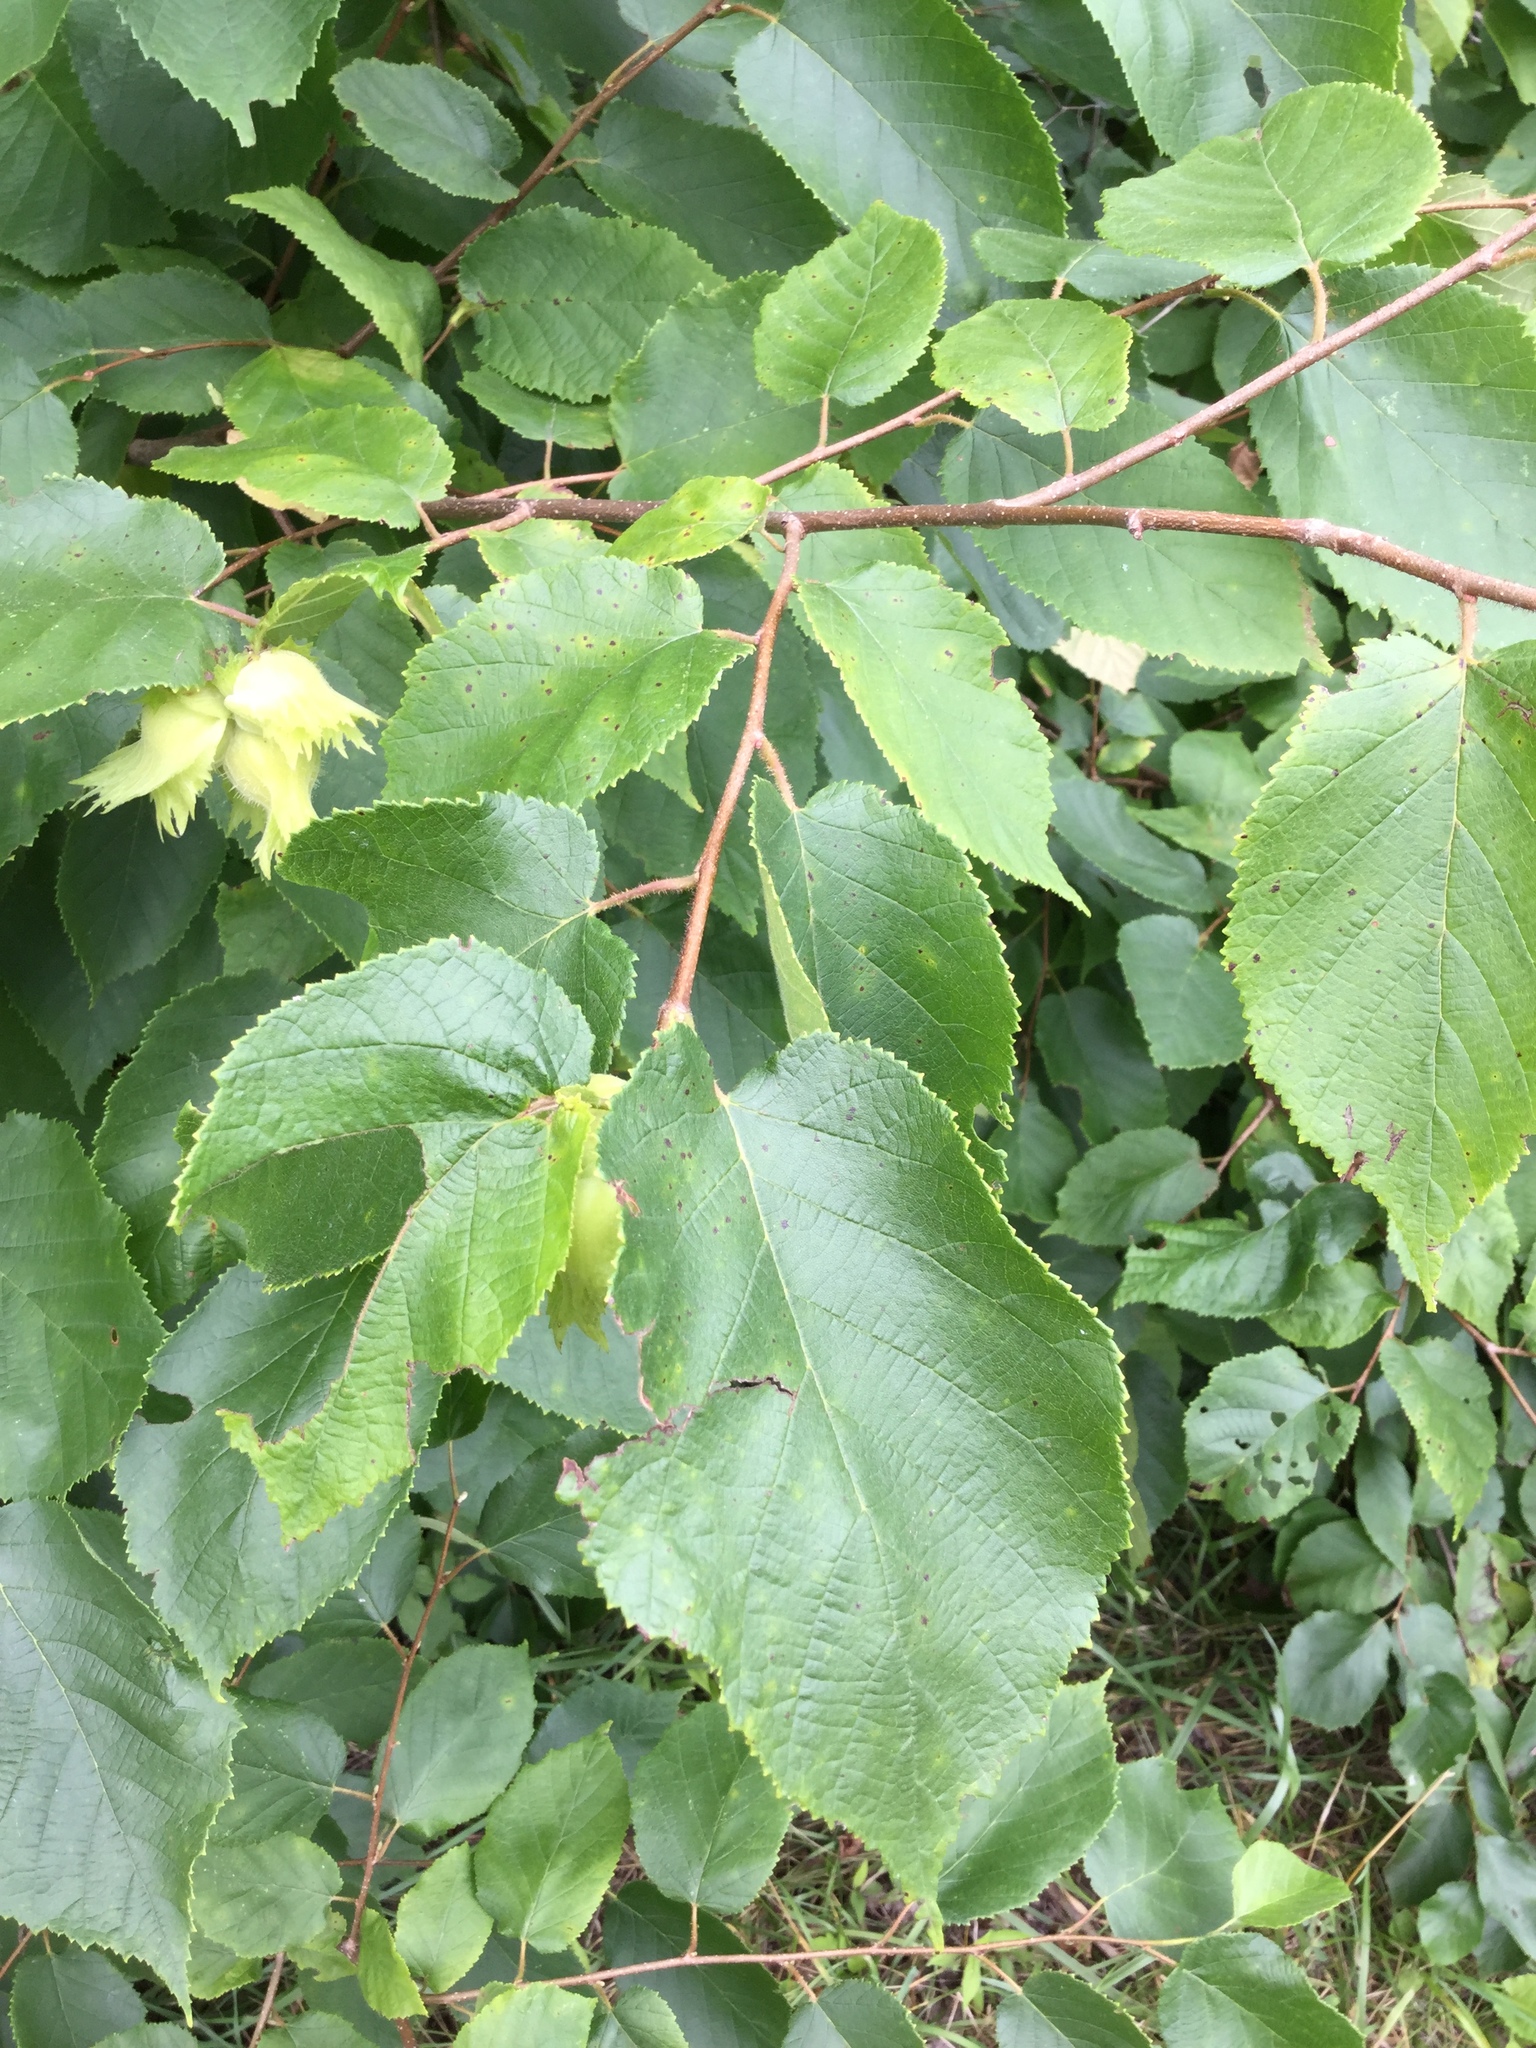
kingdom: Plantae
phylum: Tracheophyta
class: Magnoliopsida
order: Fagales
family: Betulaceae
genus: Corylus
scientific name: Corylus americana
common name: American hazel
